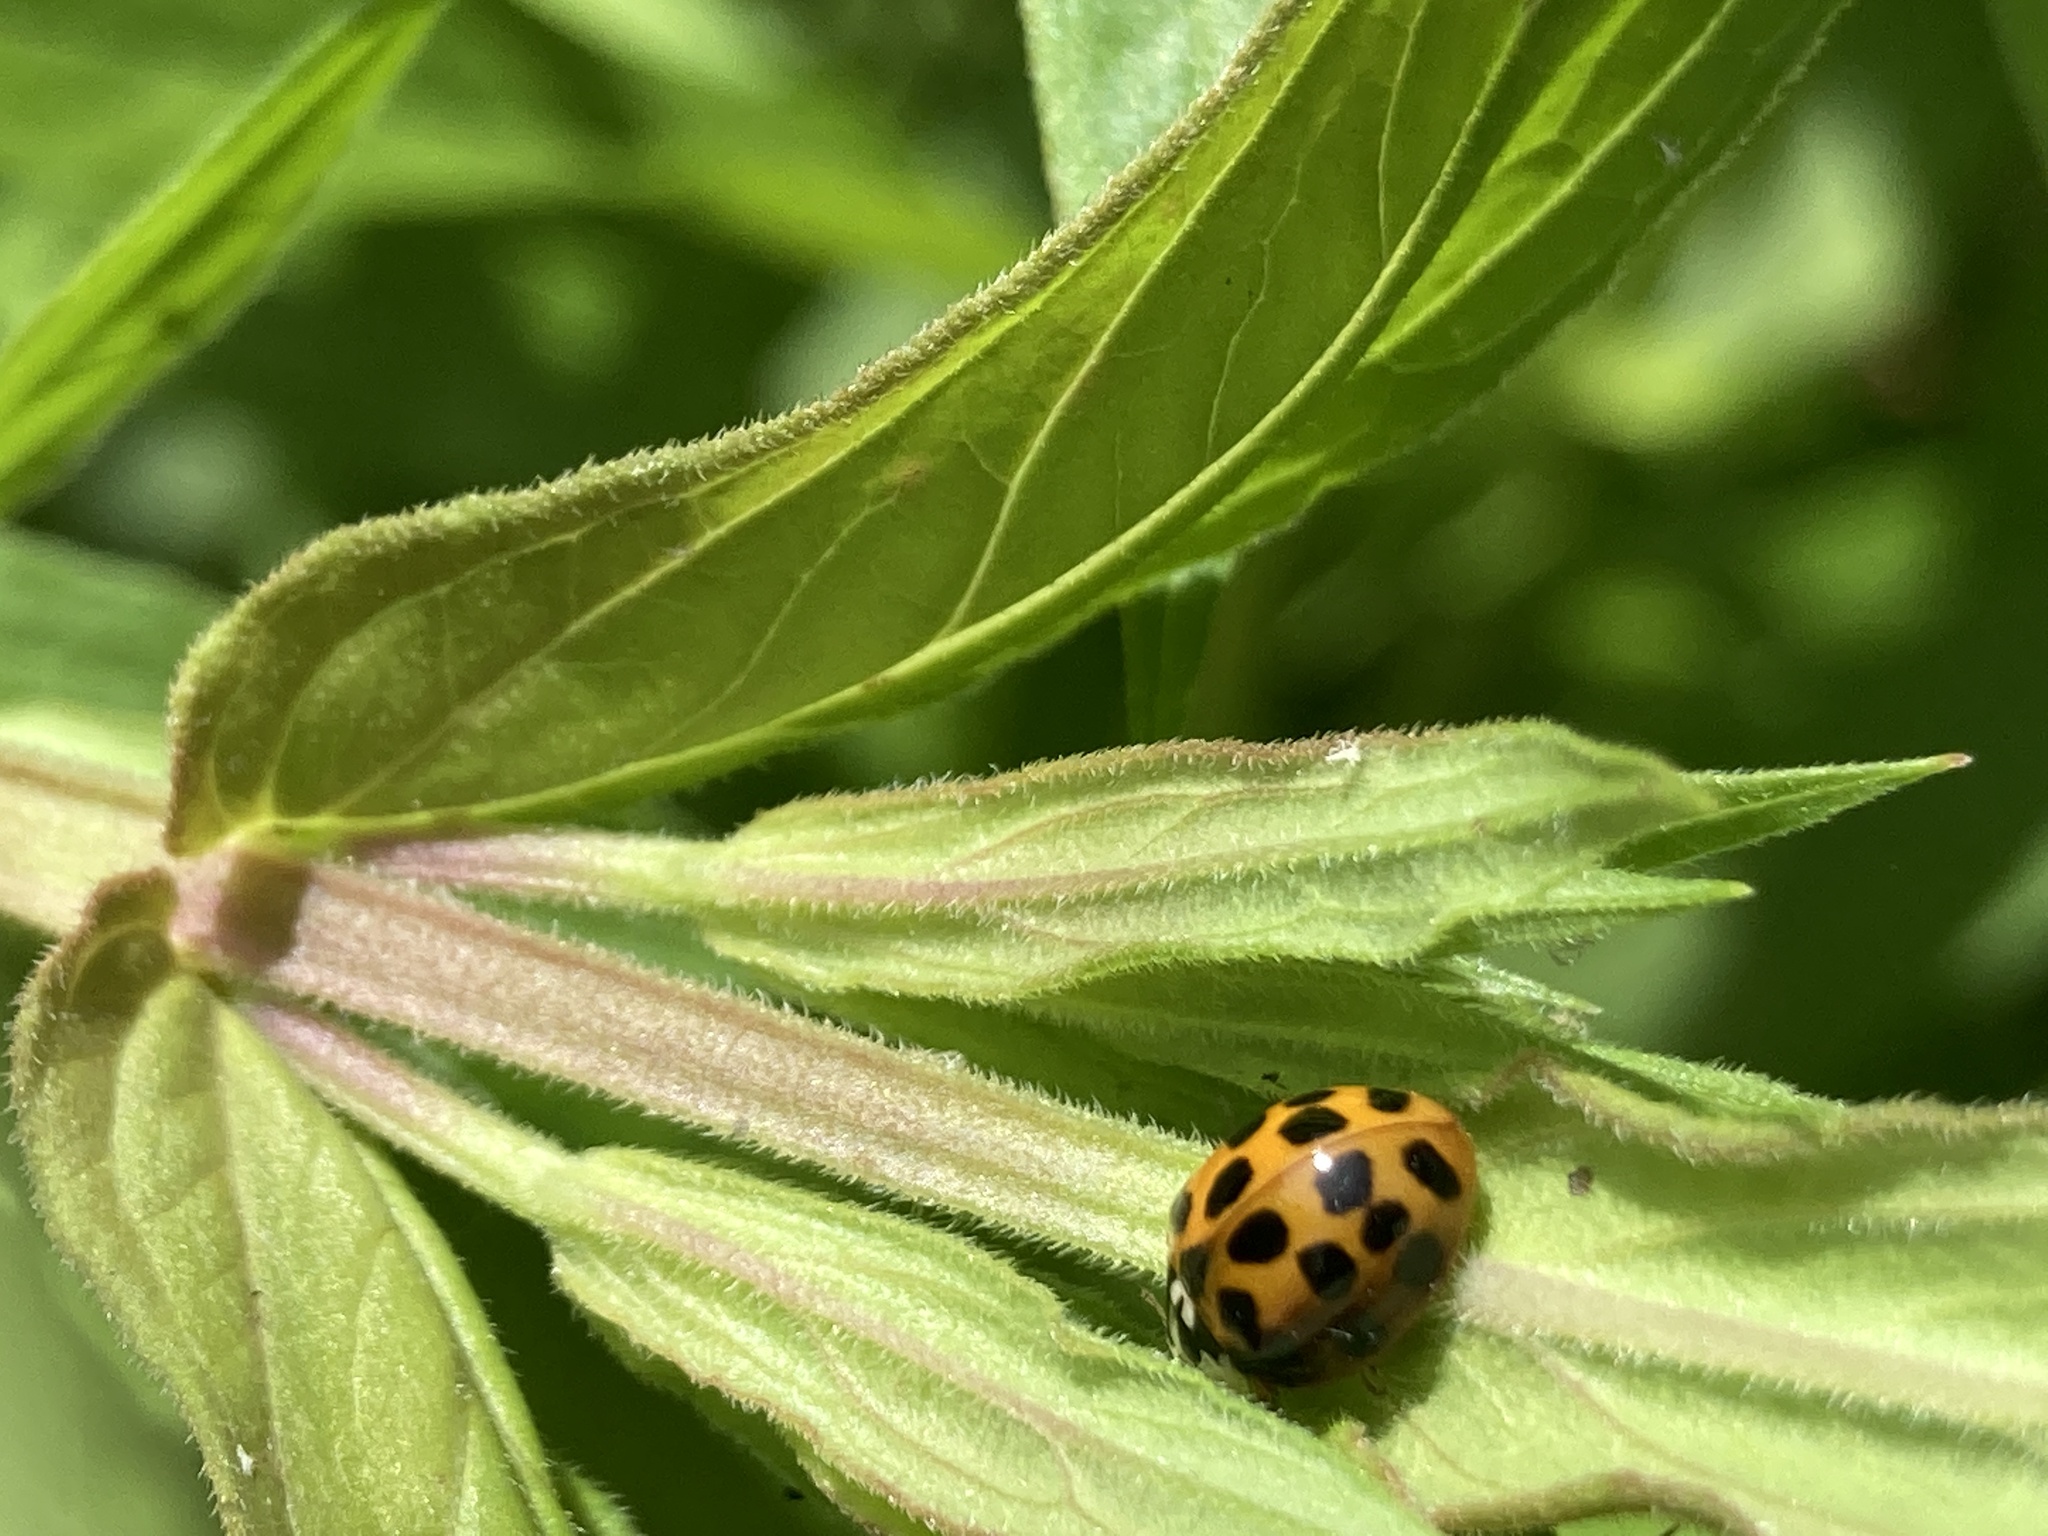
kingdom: Animalia
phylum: Arthropoda
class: Insecta
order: Coleoptera
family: Coccinellidae
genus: Harmonia
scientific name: Harmonia axyridis
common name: Harlequin ladybird
